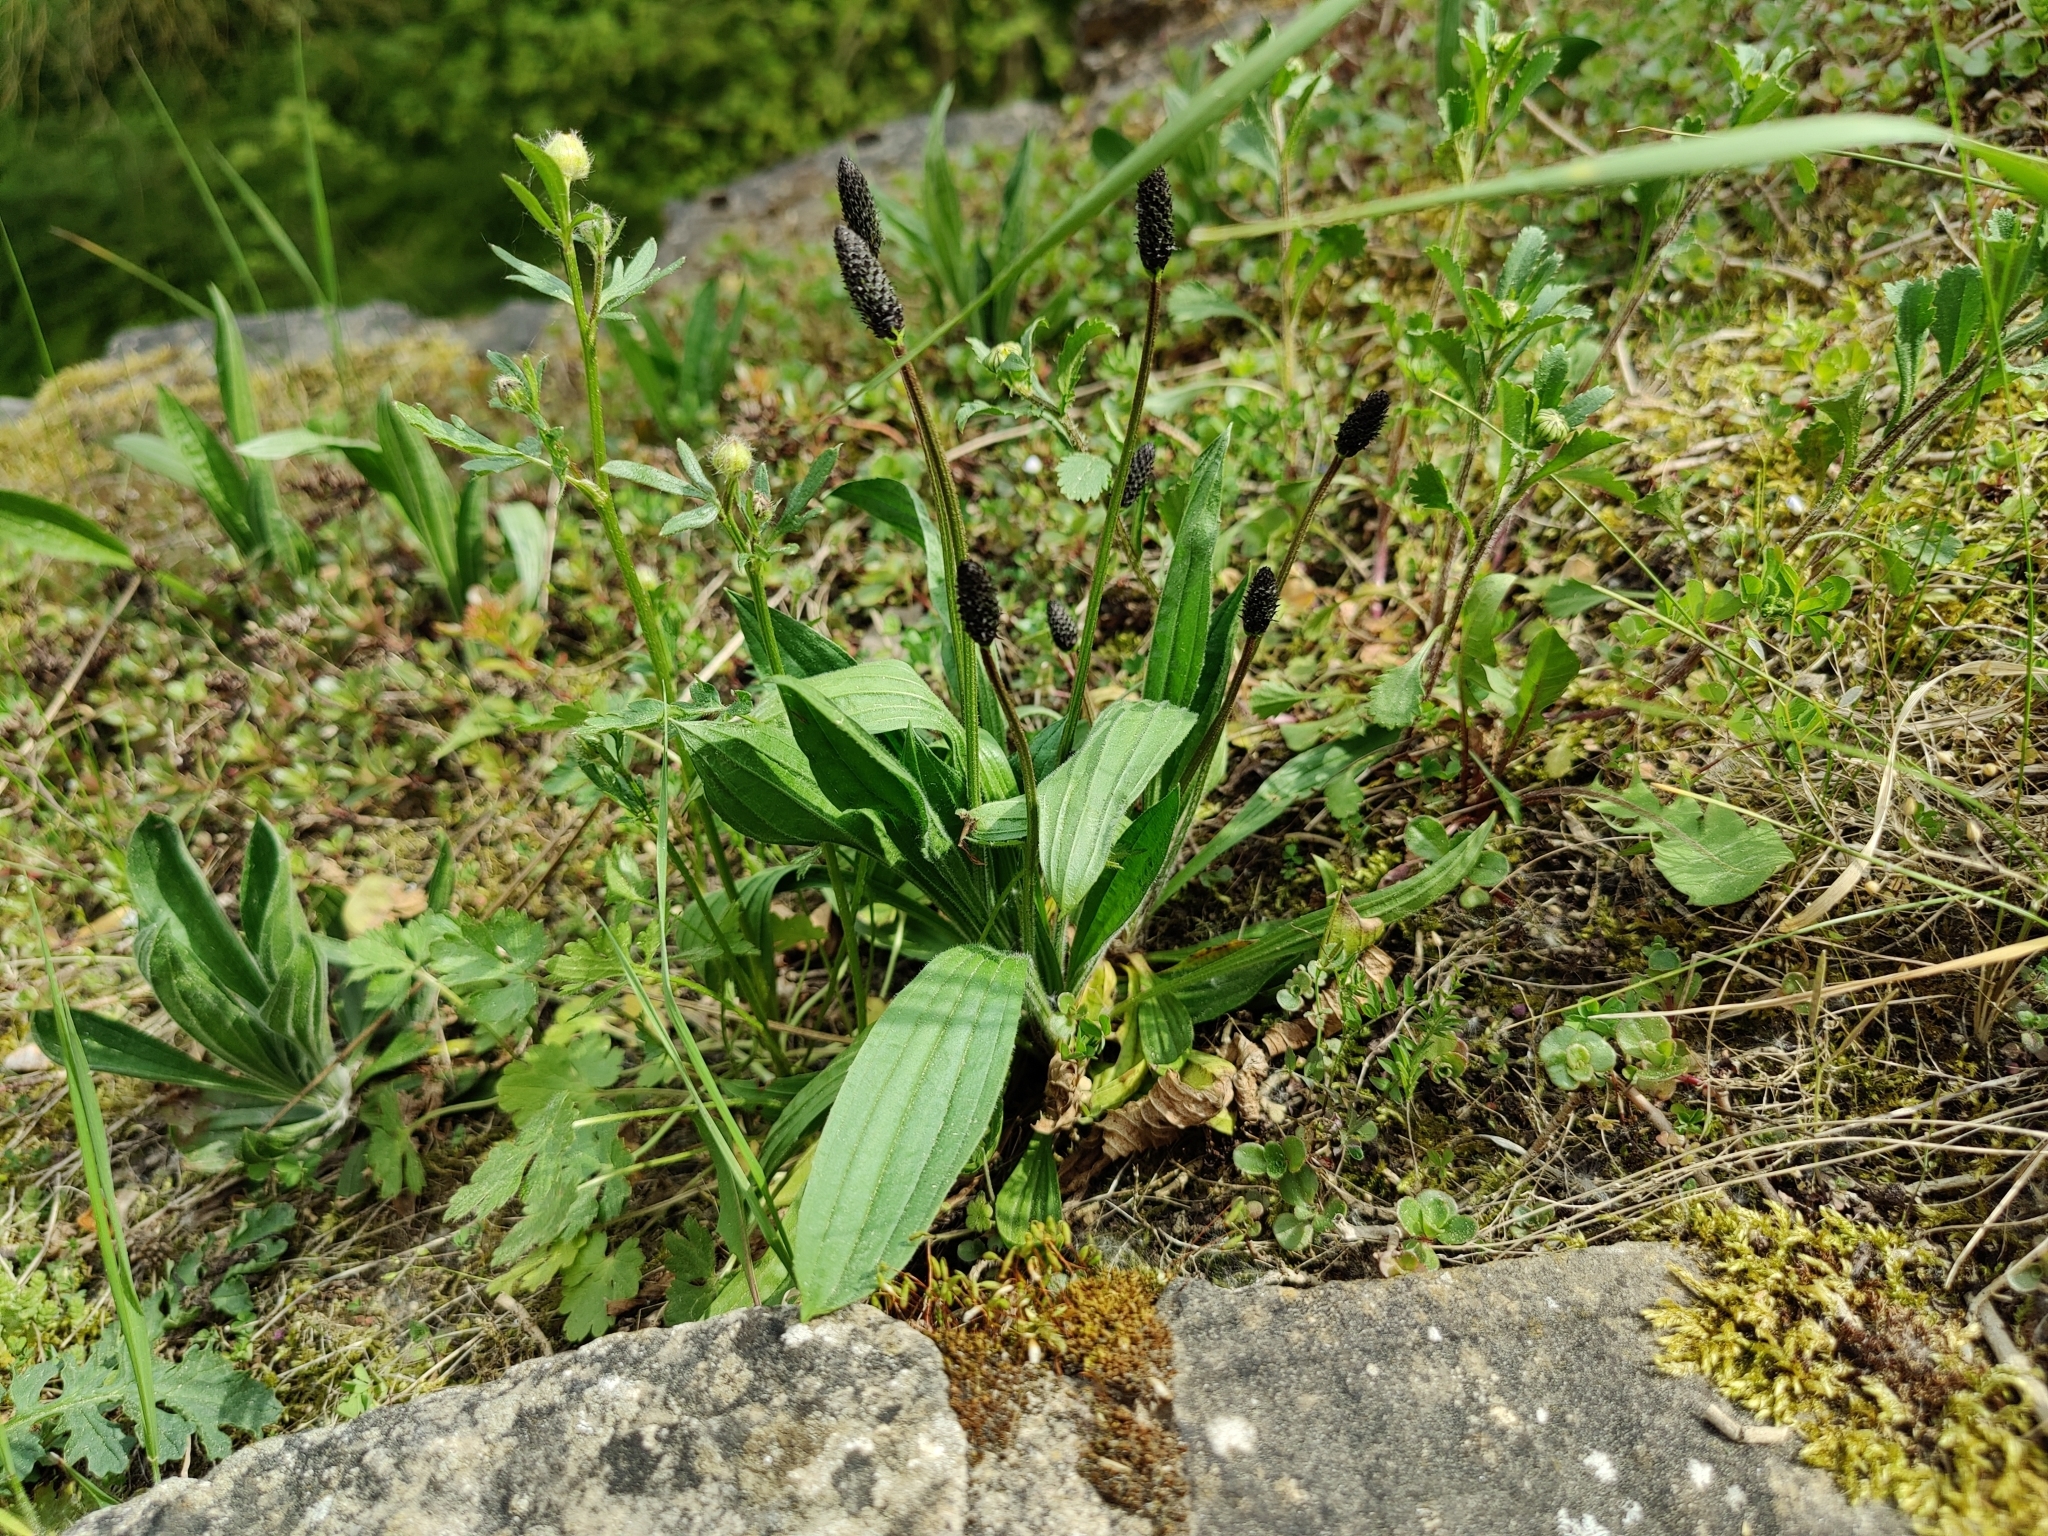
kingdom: Plantae
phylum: Tracheophyta
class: Magnoliopsida
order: Lamiales
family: Plantaginaceae
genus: Plantago
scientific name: Plantago lanceolata
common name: Ribwort plantain
